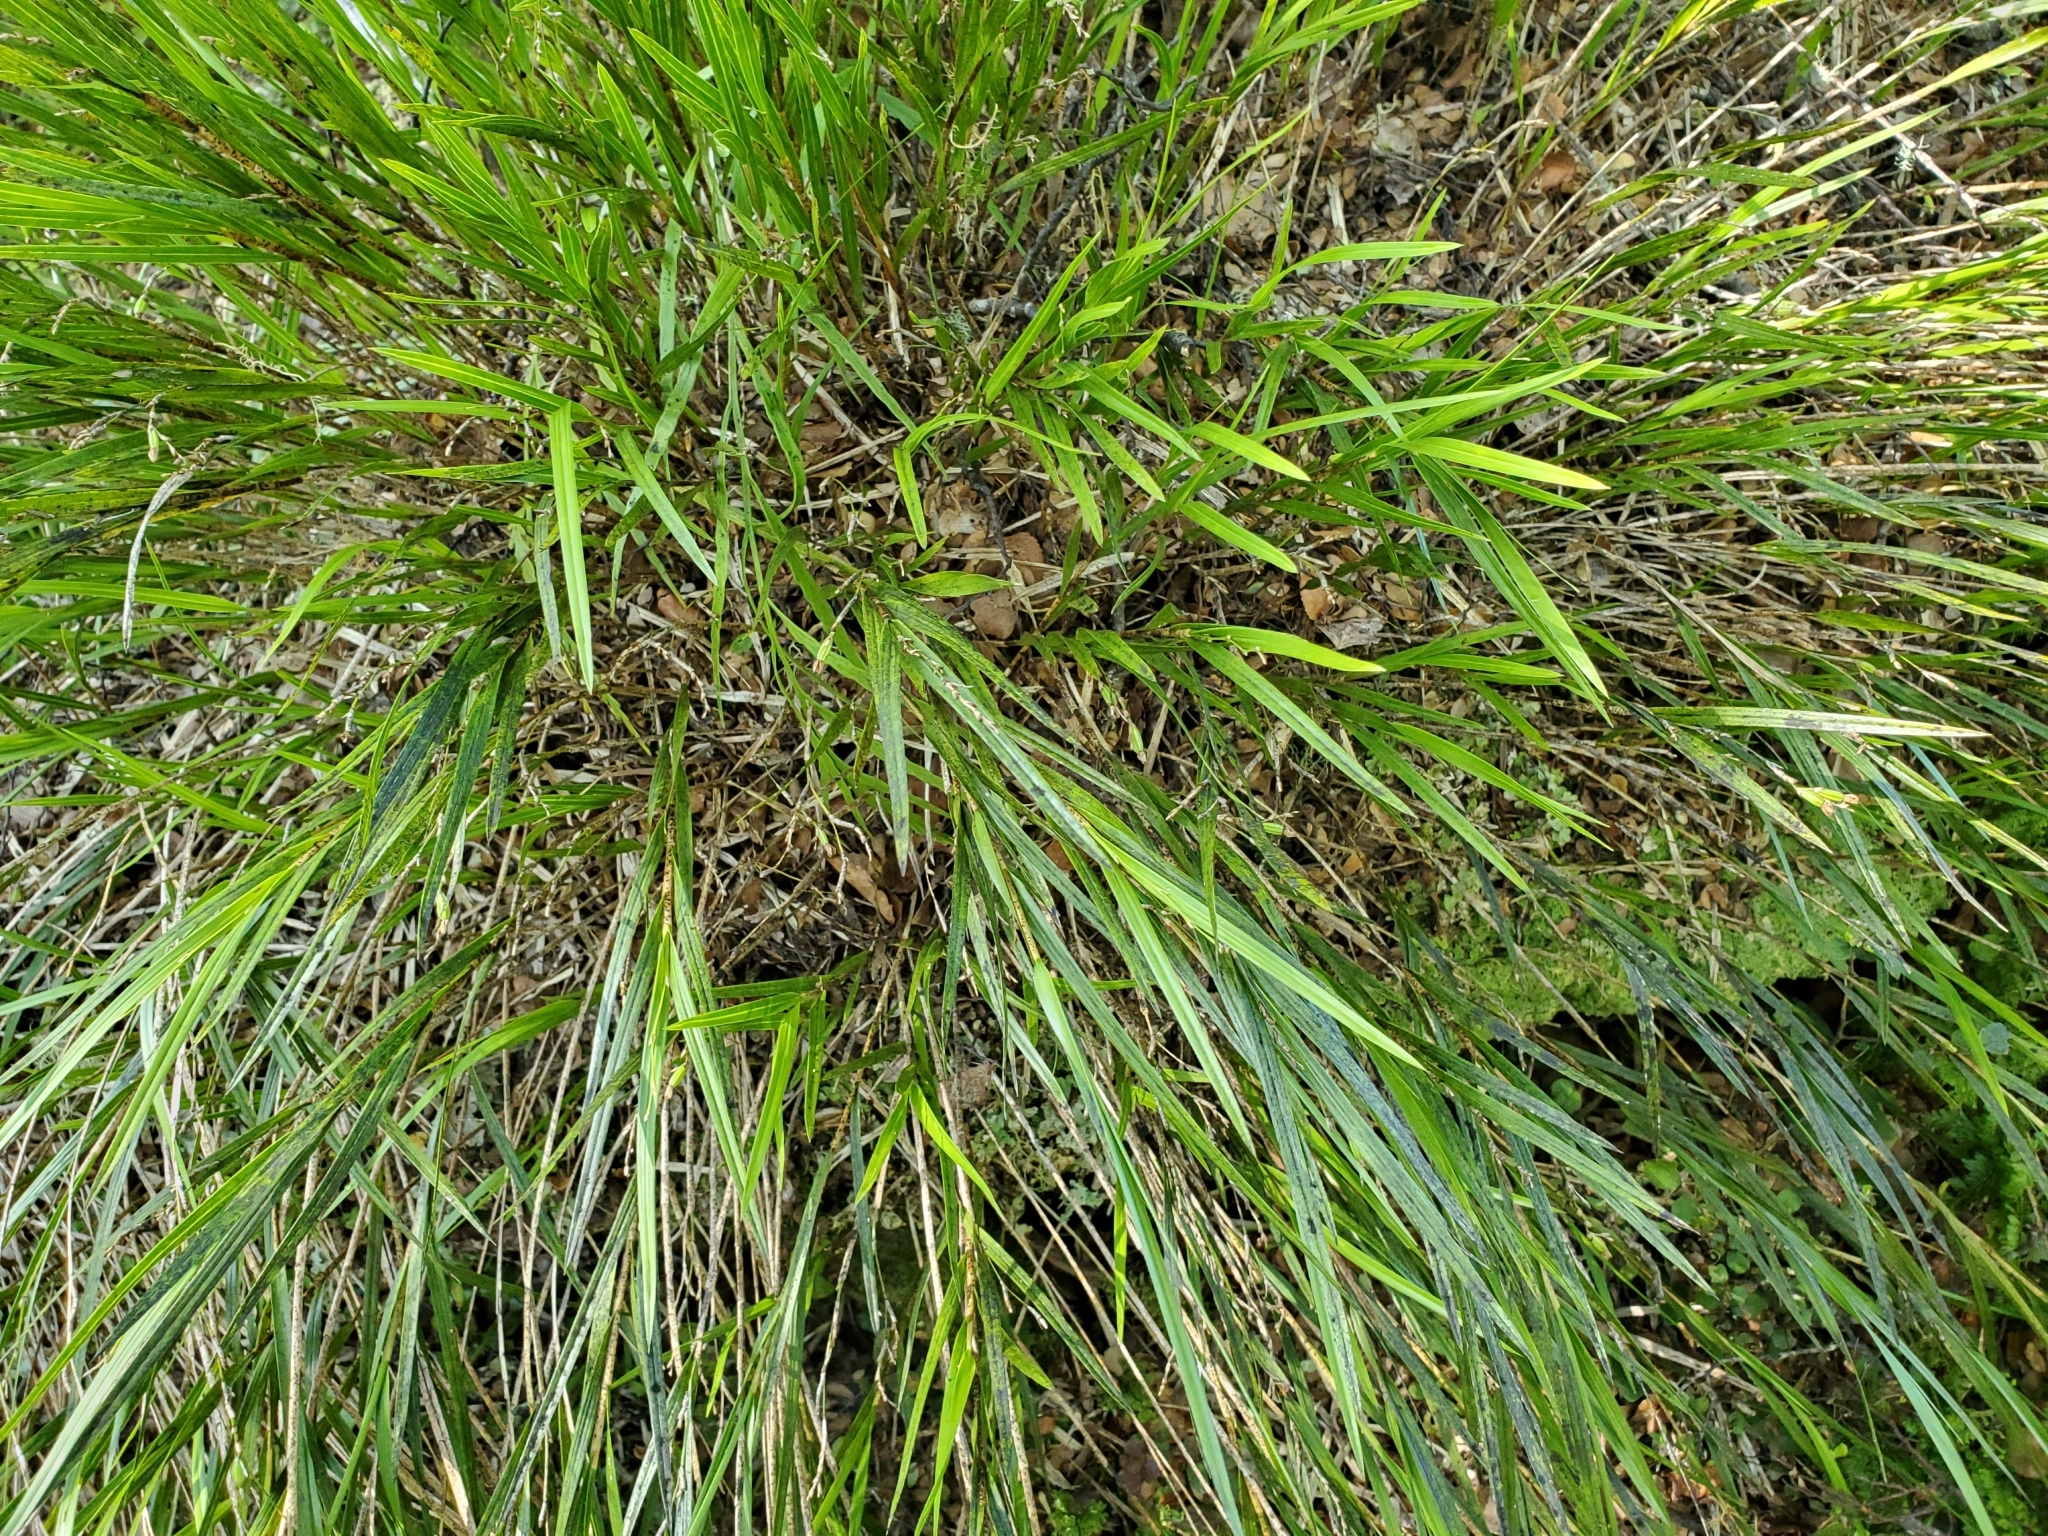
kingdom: Plantae
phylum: Tracheophyta
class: Liliopsida
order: Asparagales
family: Orchidaceae
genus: Earina
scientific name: Earina mucronata
